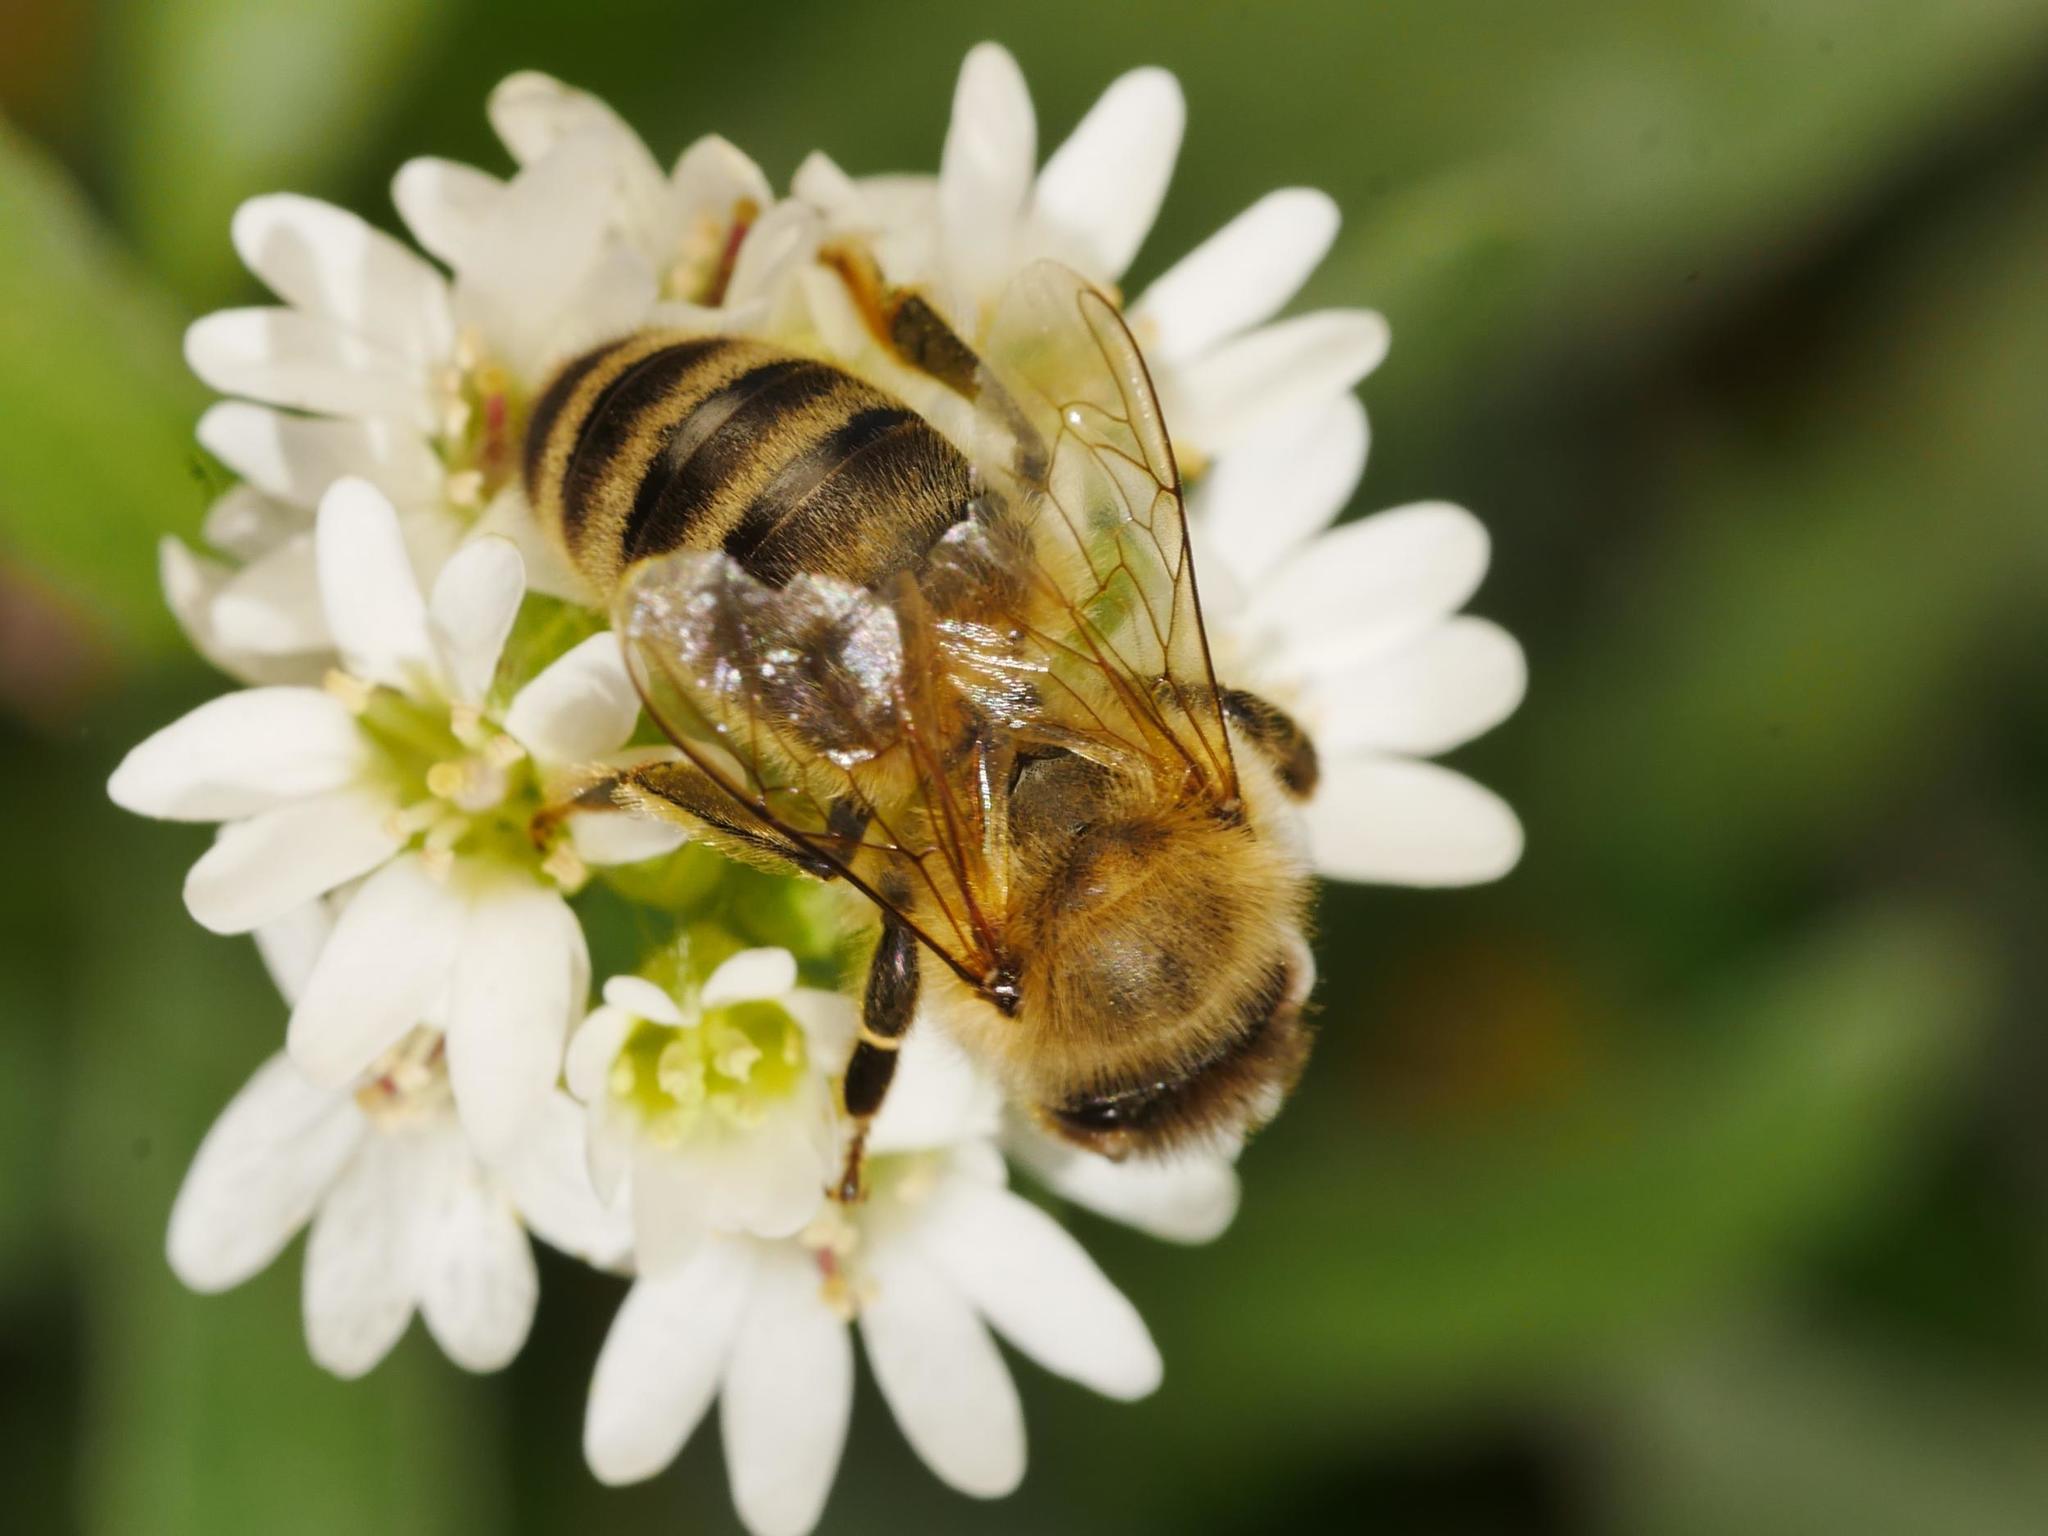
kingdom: Animalia
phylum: Arthropoda
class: Insecta
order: Hymenoptera
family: Apidae
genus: Apis
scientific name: Apis mellifera
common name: Honey bee
